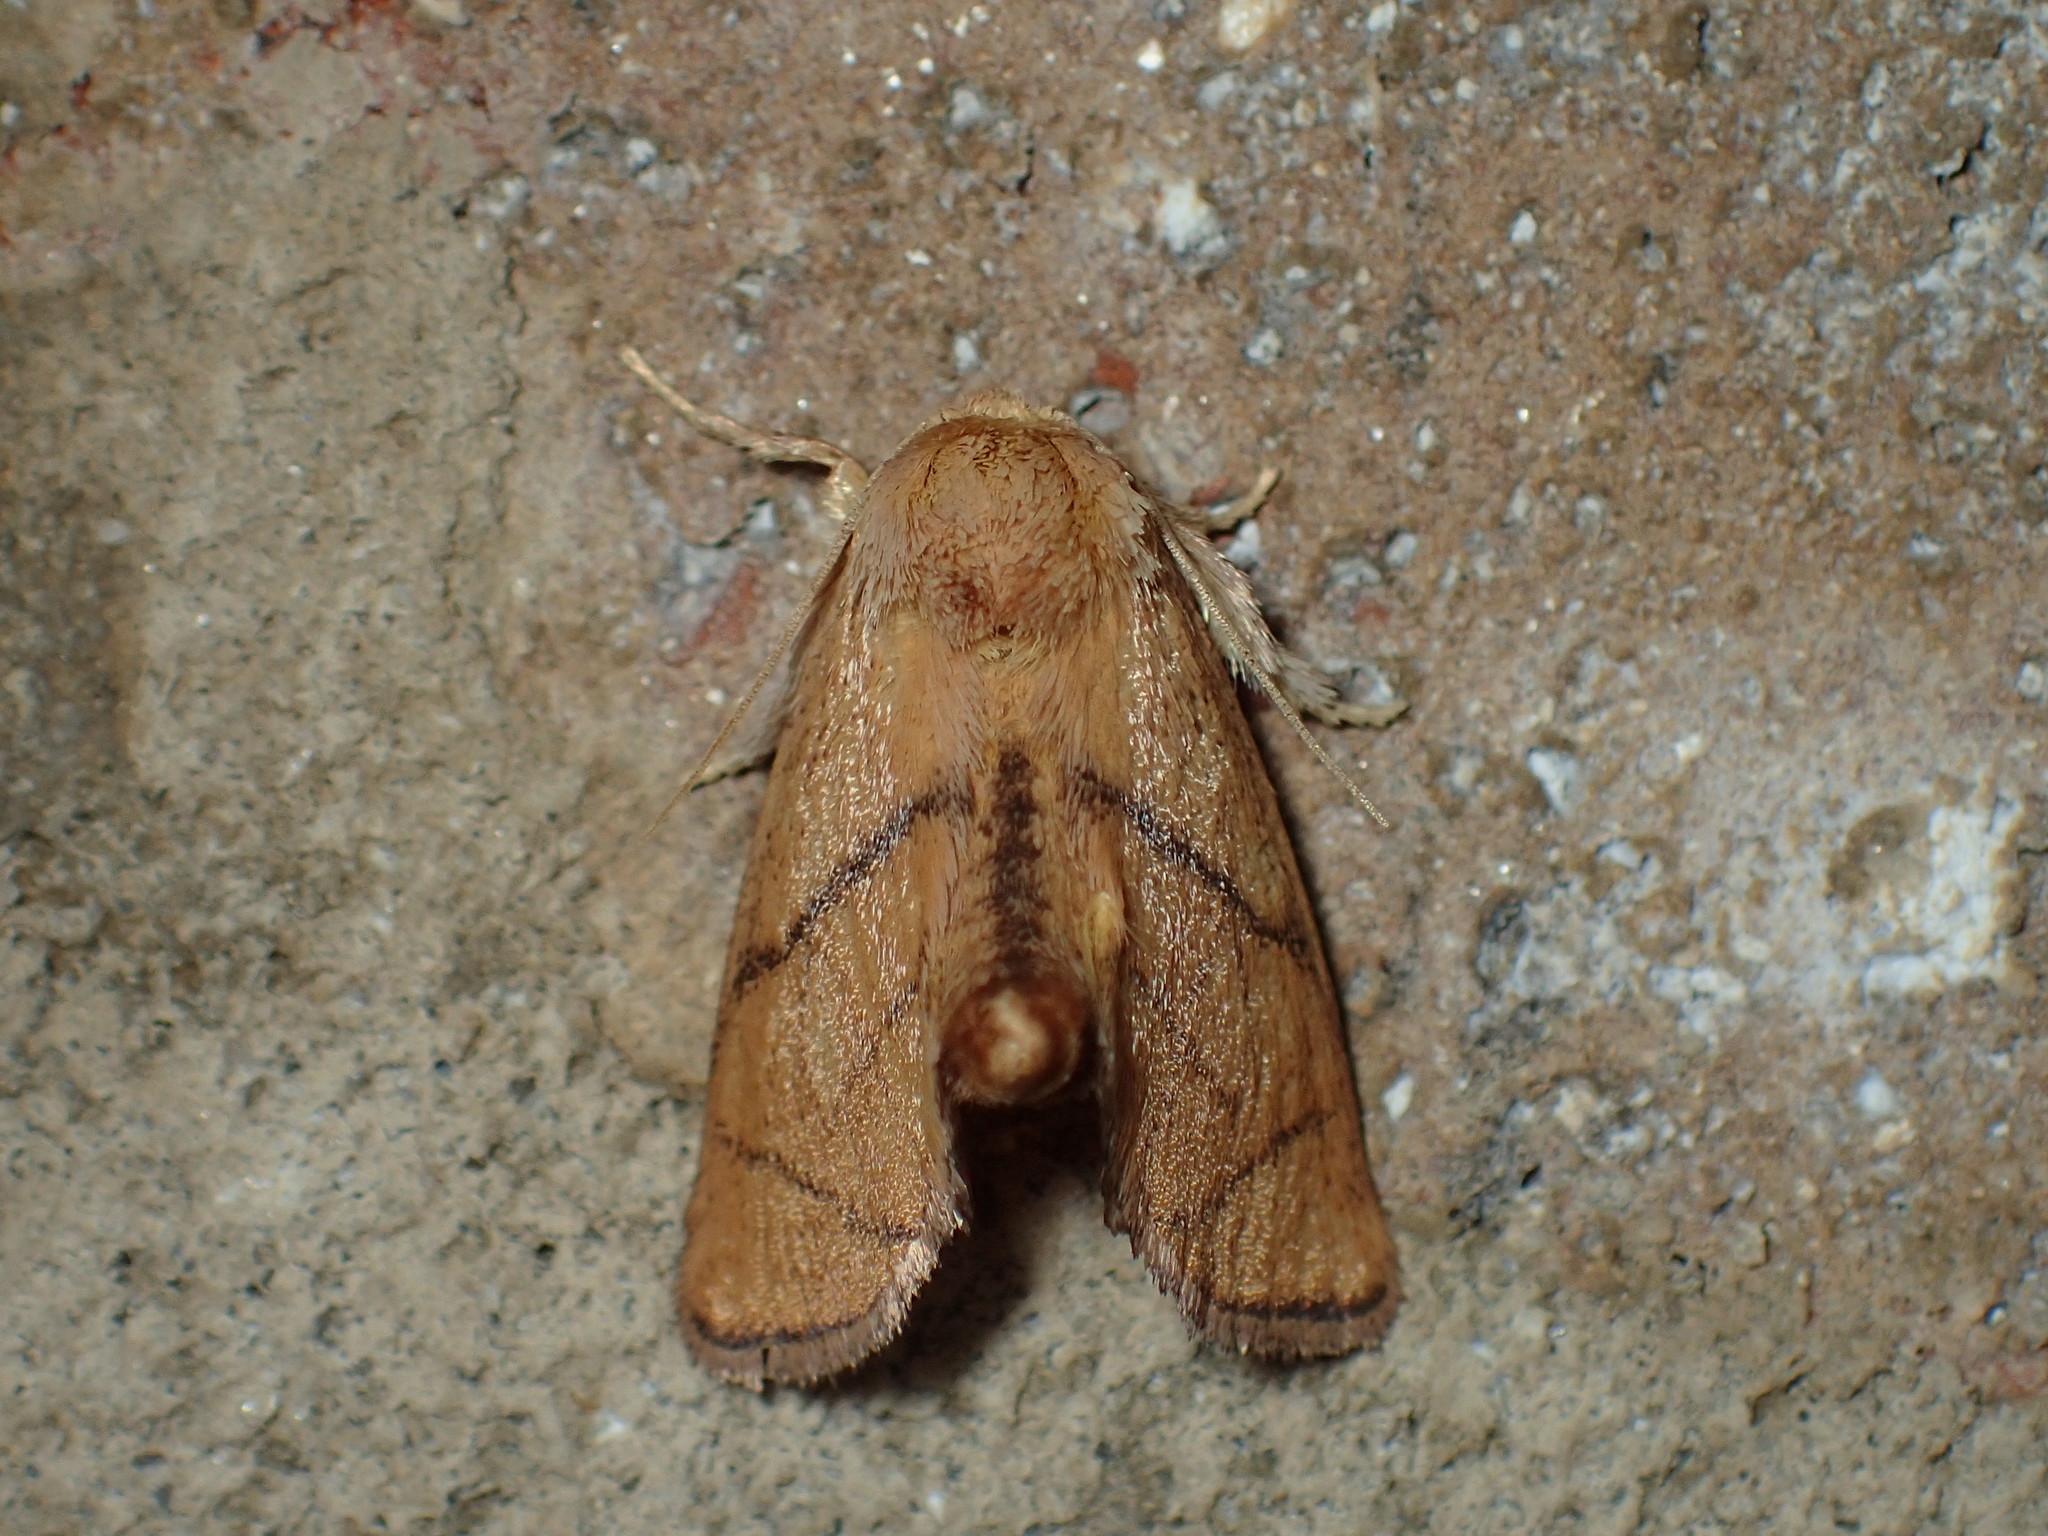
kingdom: Animalia
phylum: Arthropoda
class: Insecta
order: Lepidoptera
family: Limacodidae
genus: Apoda
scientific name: Apoda y-inversa
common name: Yellow-collared slug moth
